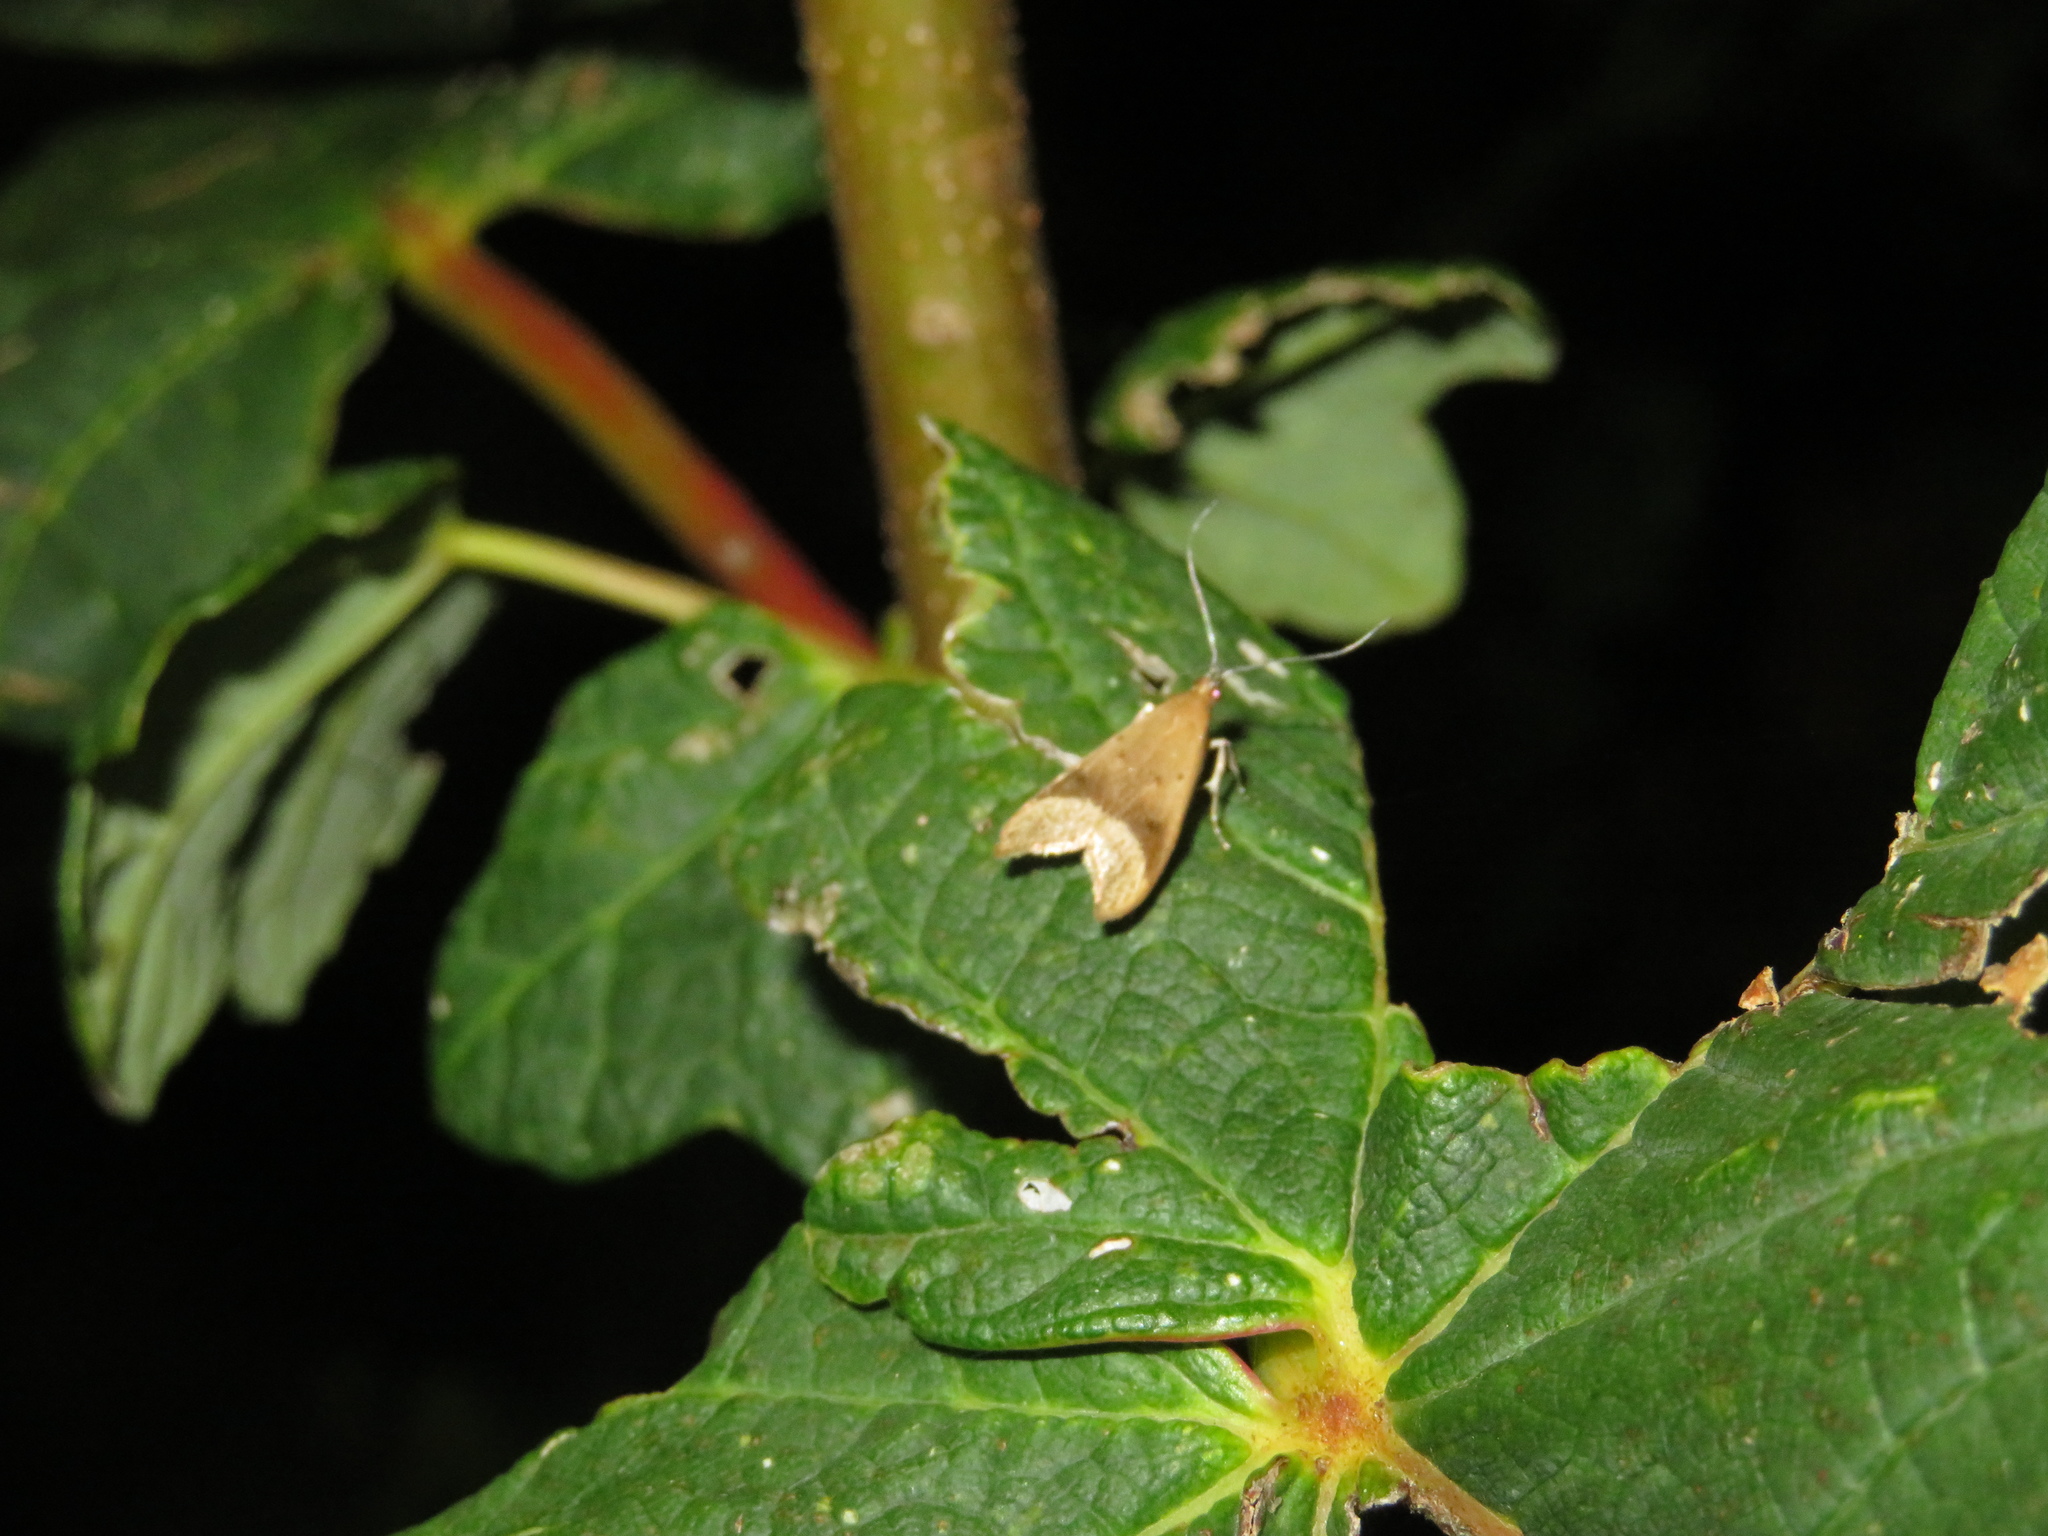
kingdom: Animalia
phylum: Arthropoda
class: Insecta
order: Lepidoptera
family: Oecophoridae
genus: Gymnobathra
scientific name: Gymnobathra hyetodes
